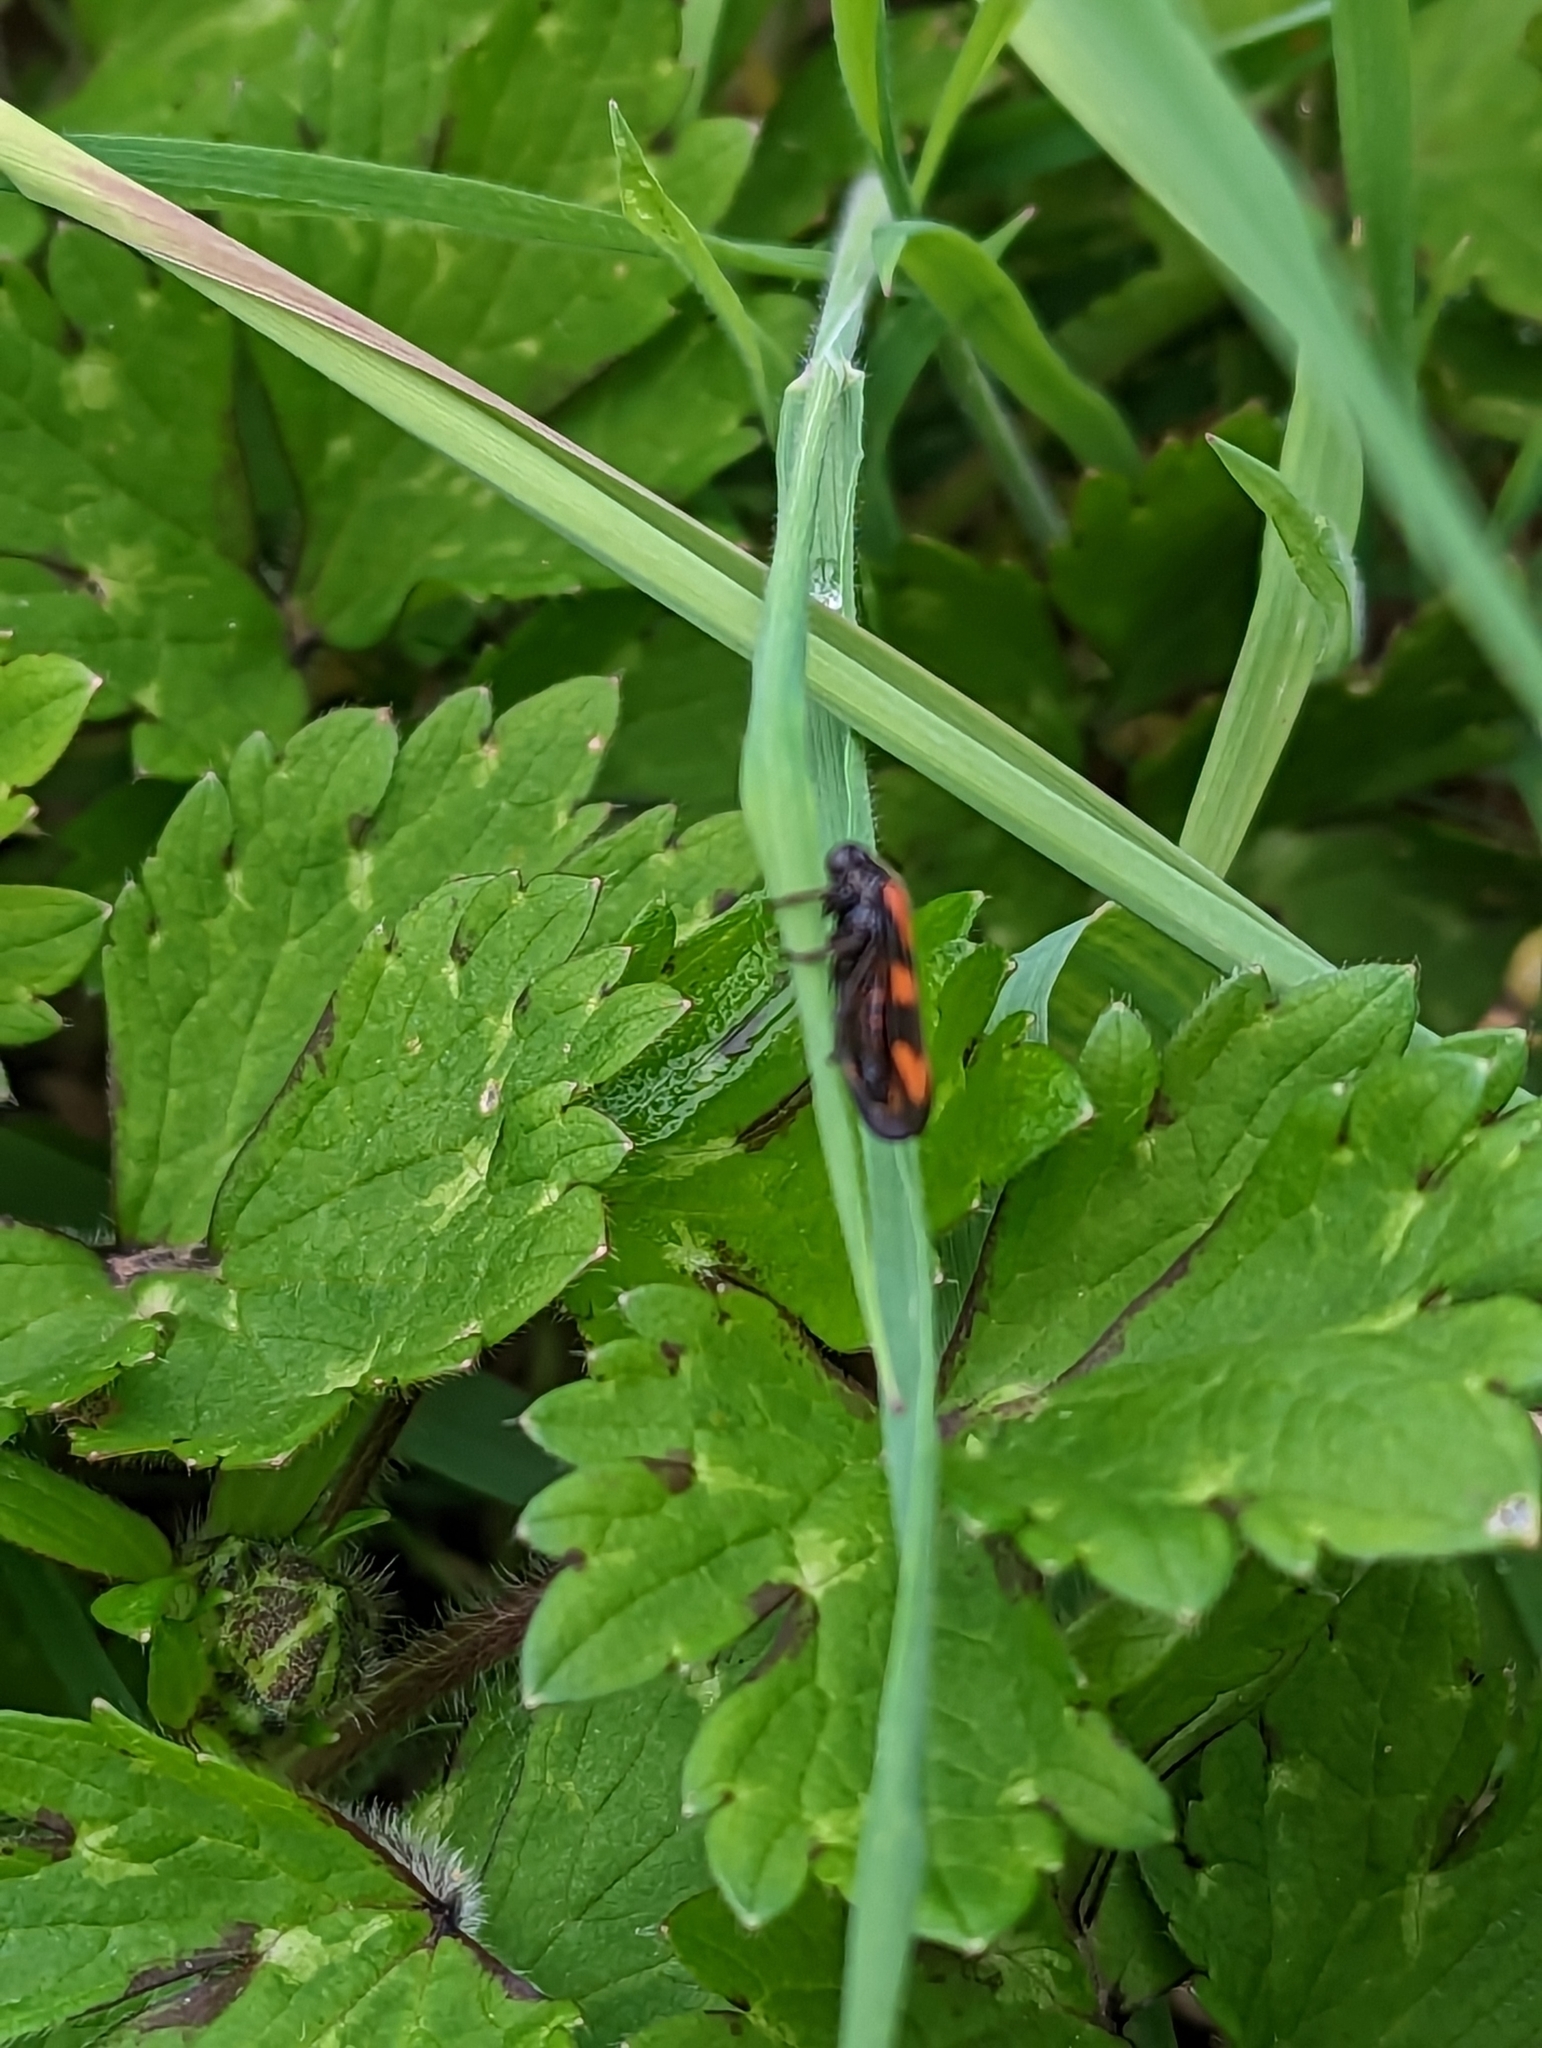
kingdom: Animalia
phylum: Arthropoda
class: Insecta
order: Hemiptera
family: Cercopidae
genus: Cercopis
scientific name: Cercopis vulnerata
